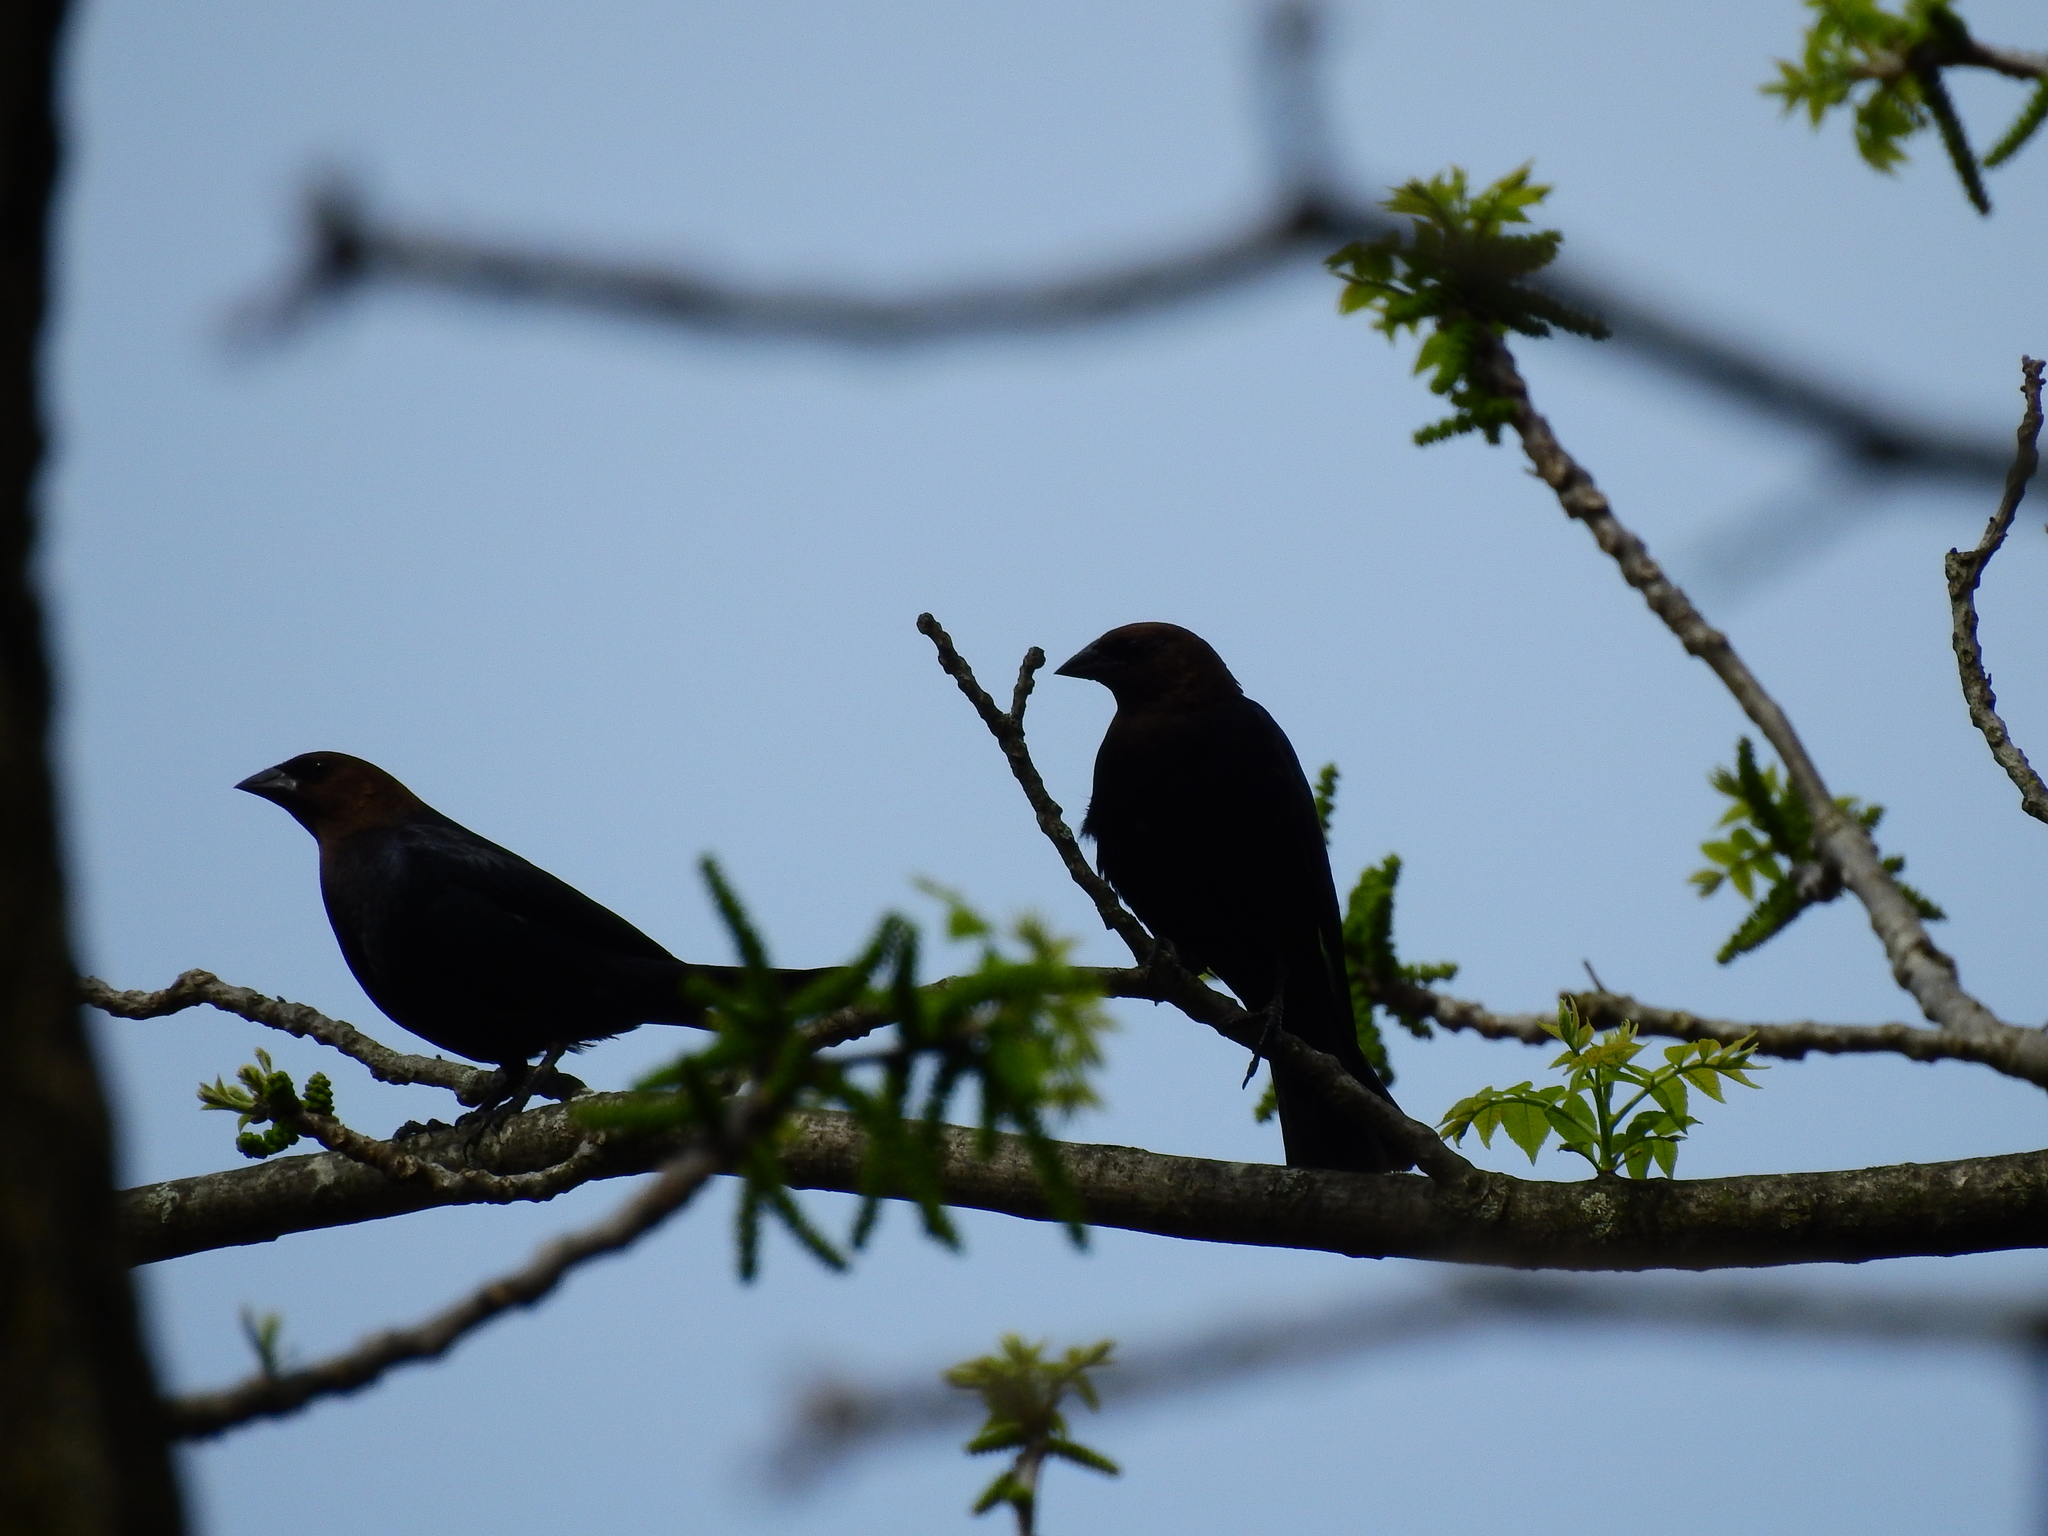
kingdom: Animalia
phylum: Chordata
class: Aves
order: Passeriformes
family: Icteridae
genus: Molothrus
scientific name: Molothrus ater
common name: Brown-headed cowbird
